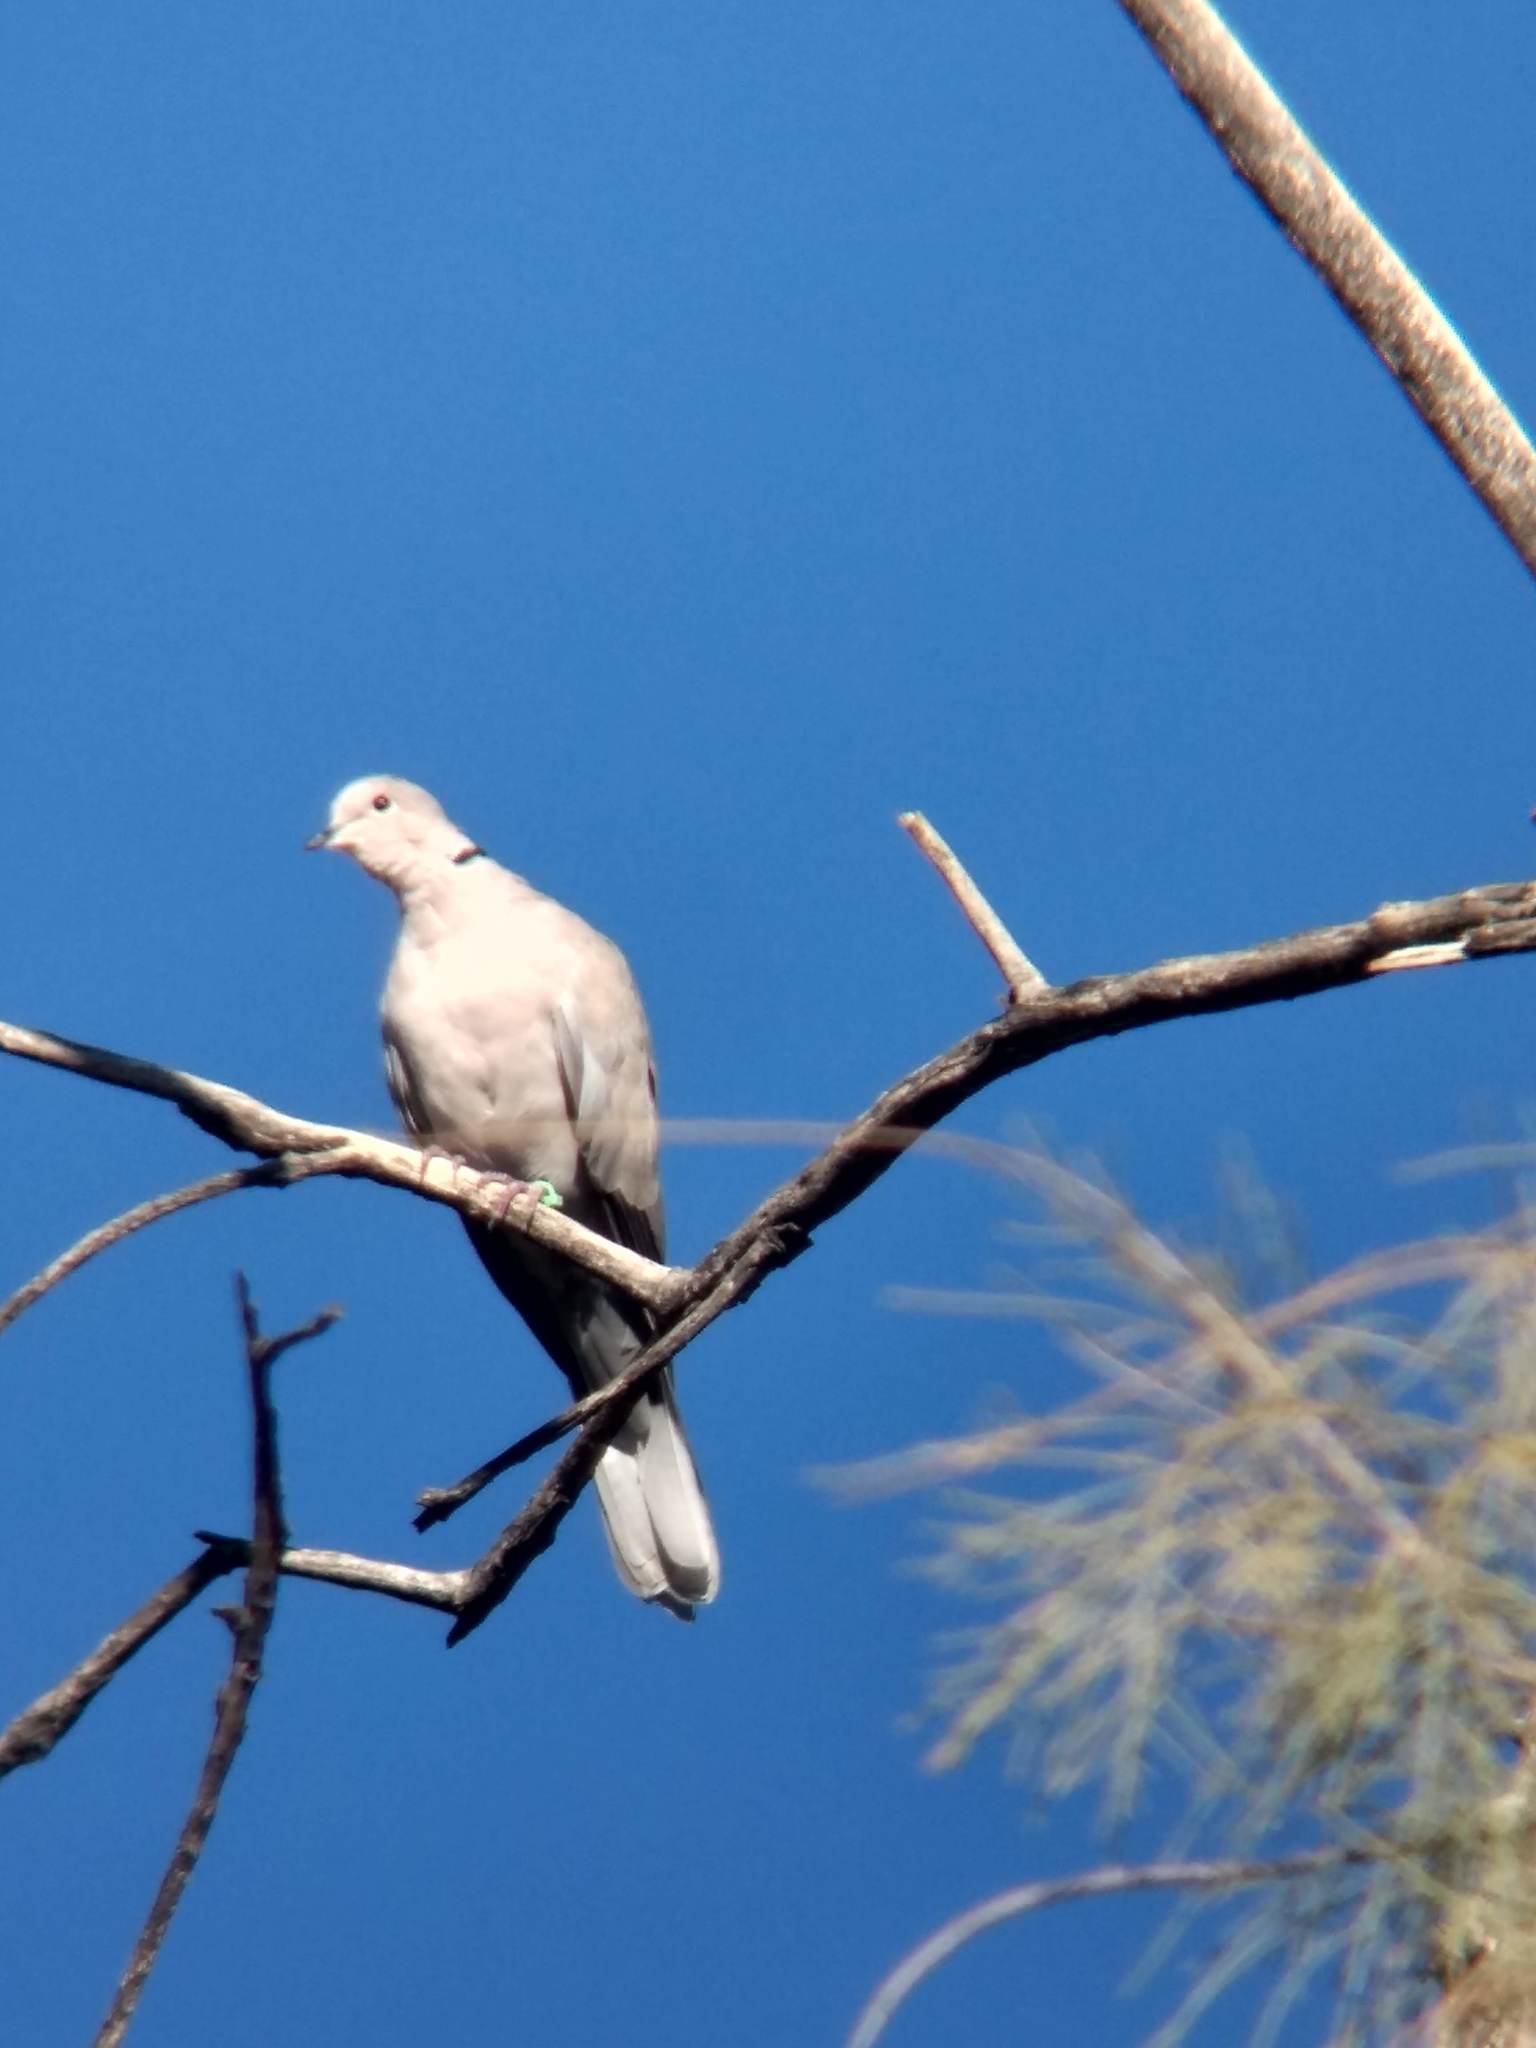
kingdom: Animalia
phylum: Chordata
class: Aves
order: Columbiformes
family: Columbidae
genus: Streptopelia
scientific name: Streptopelia decaocto
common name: Eurasian collared dove
